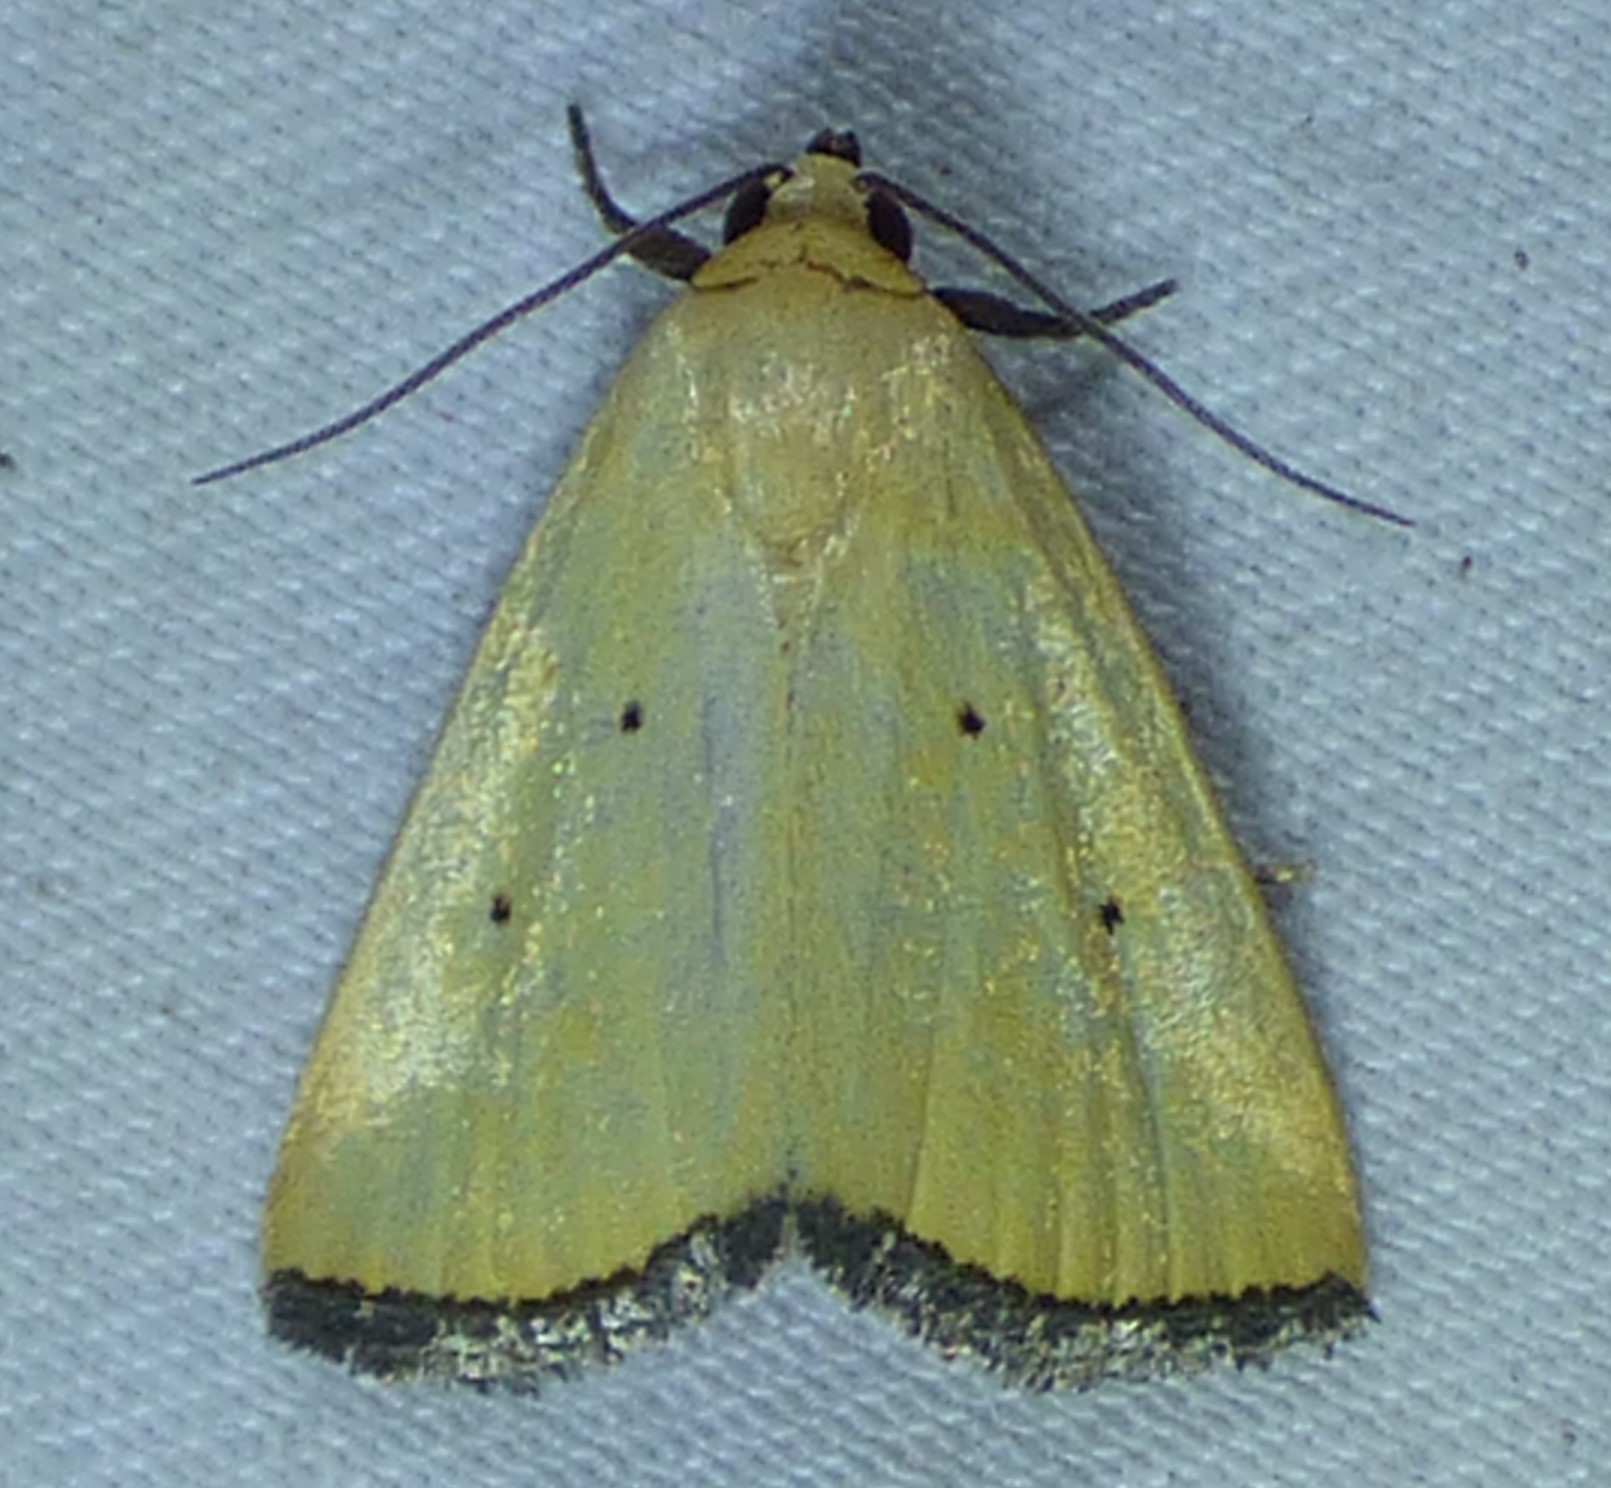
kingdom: Animalia
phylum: Arthropoda
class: Insecta
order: Lepidoptera
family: Noctuidae
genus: Marimatha
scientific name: Marimatha nigrofimbria
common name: Black-bordered lemon moth
